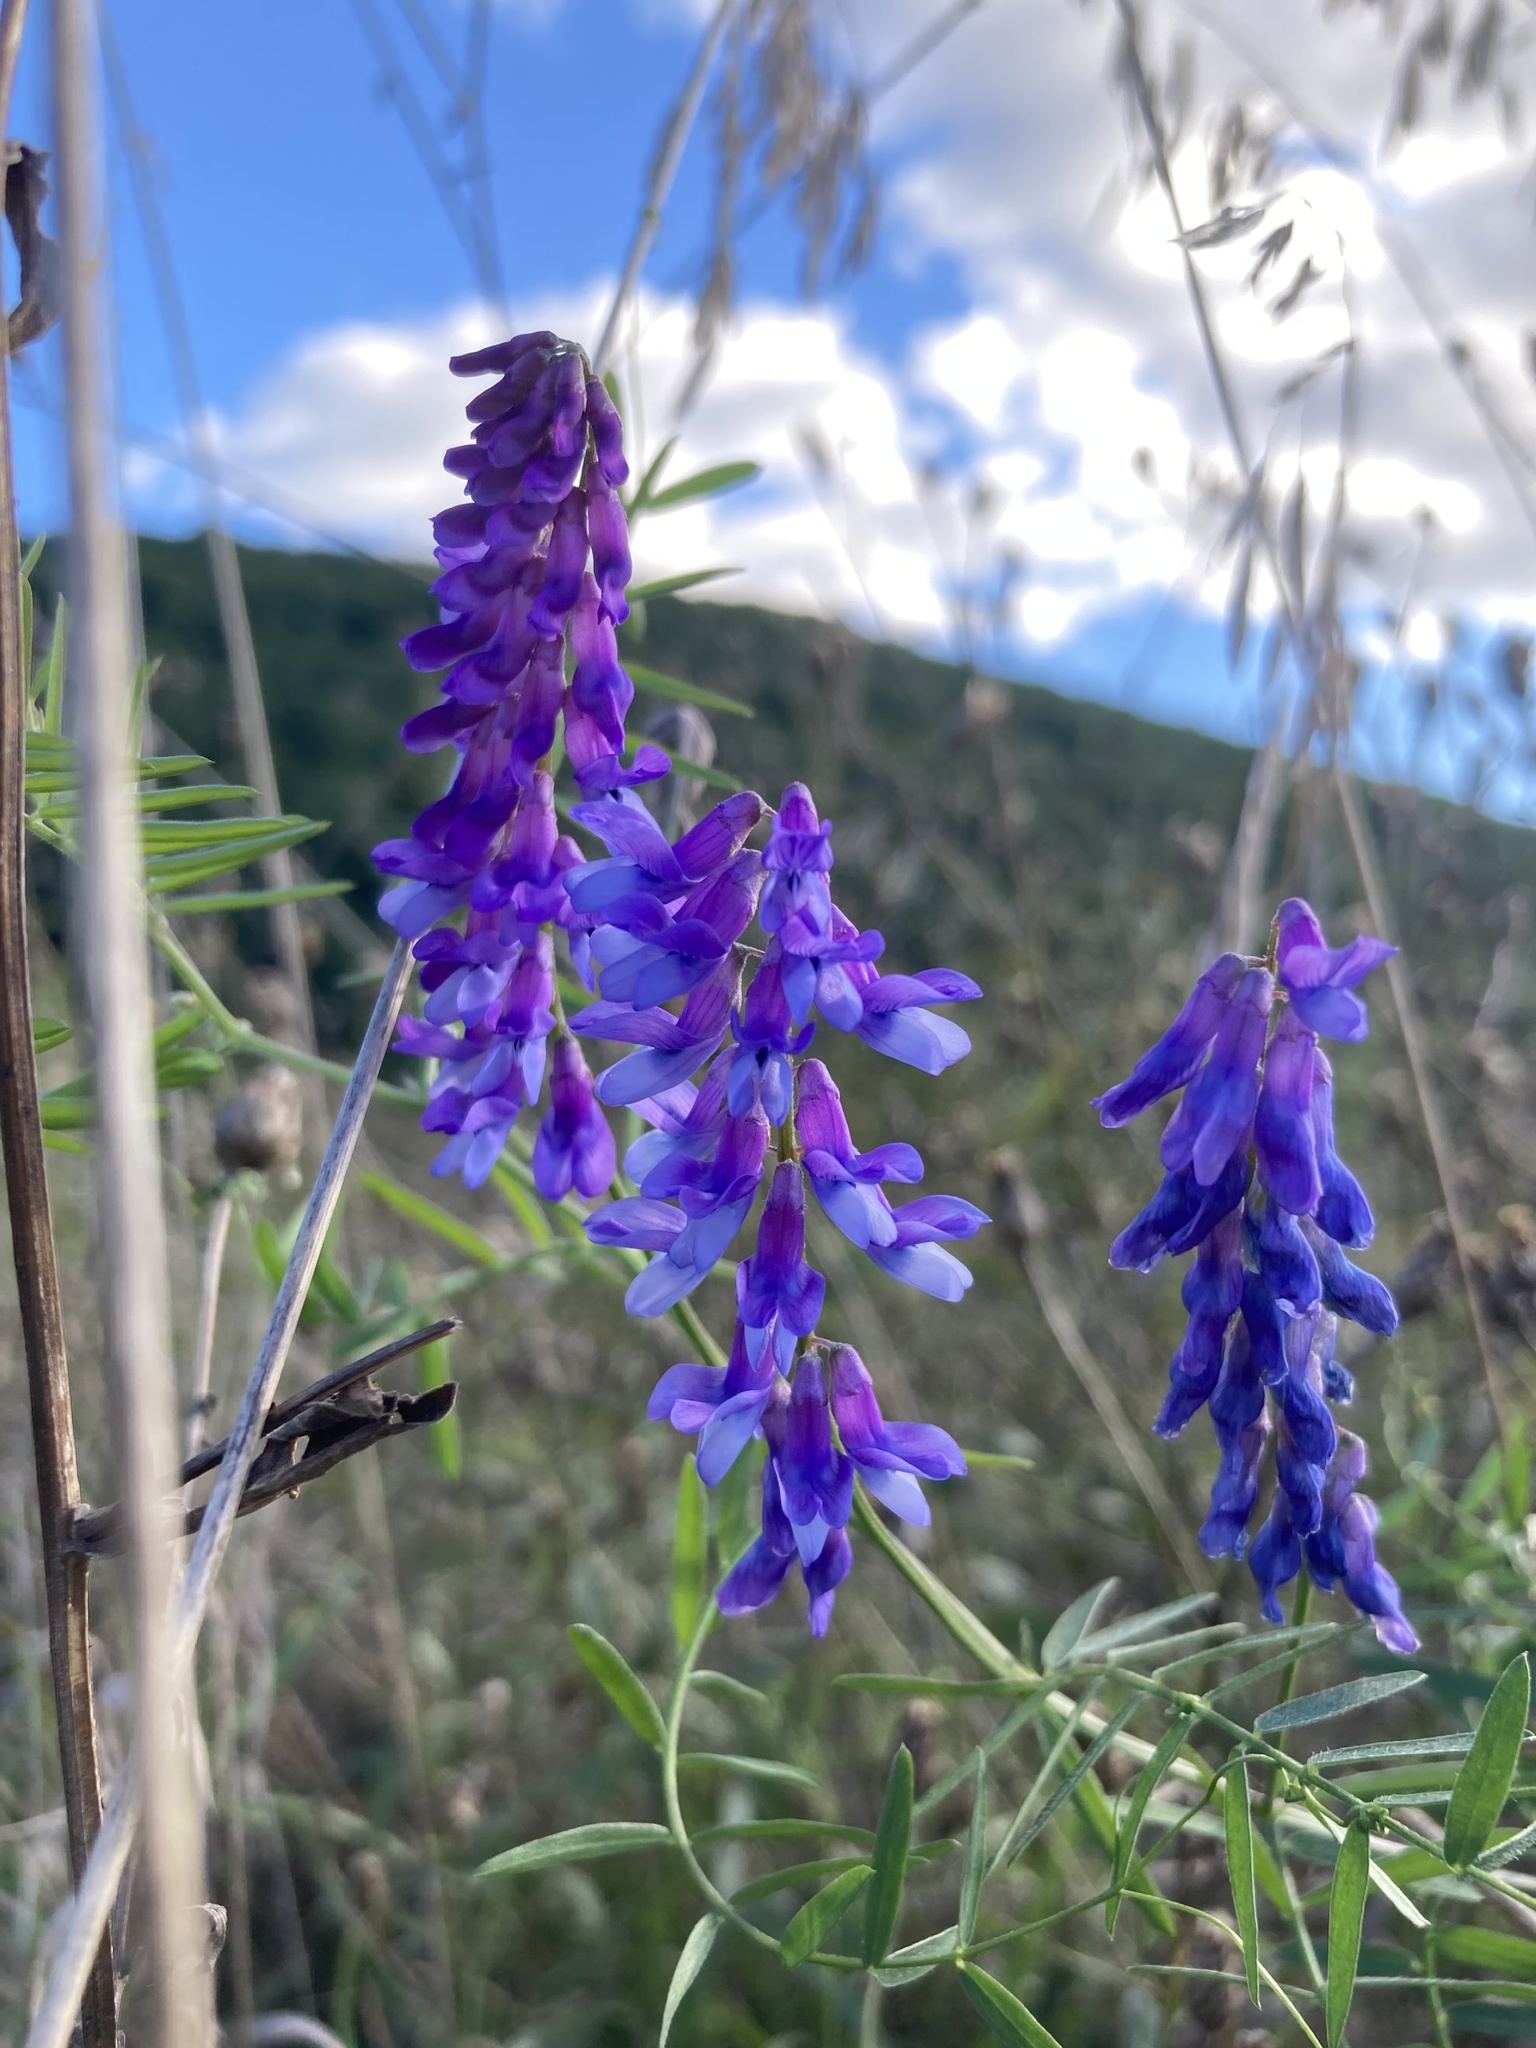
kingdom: Plantae
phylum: Tracheophyta
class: Magnoliopsida
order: Fabales
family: Fabaceae
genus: Vicia
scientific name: Vicia cracca
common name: Bird vetch
